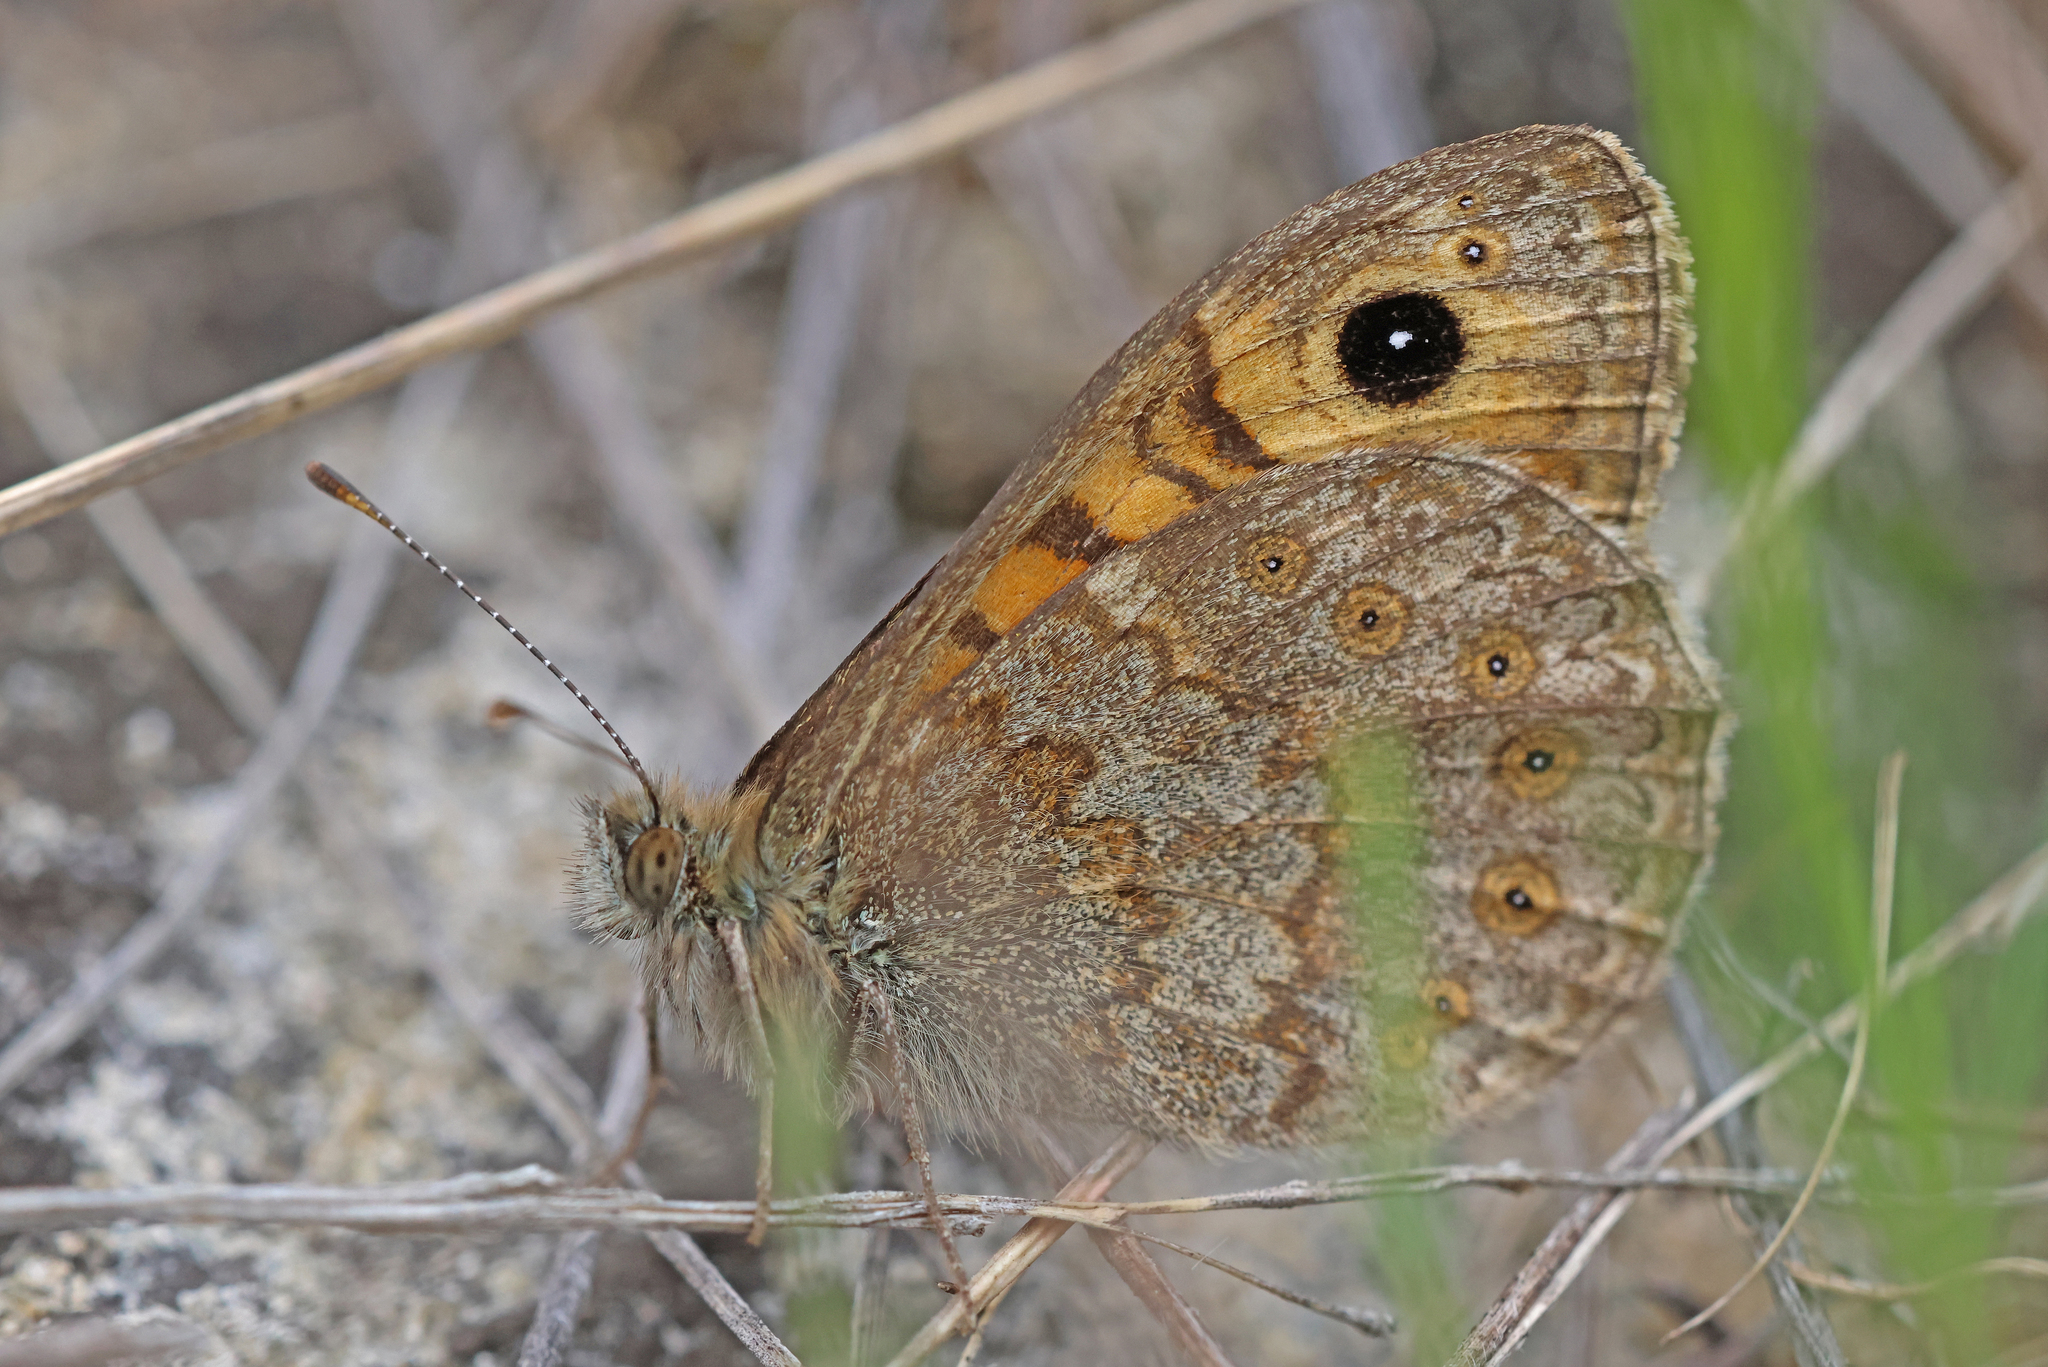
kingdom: Animalia
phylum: Arthropoda
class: Insecta
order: Lepidoptera
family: Nymphalidae
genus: Pararge
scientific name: Pararge Lasiommata megera
